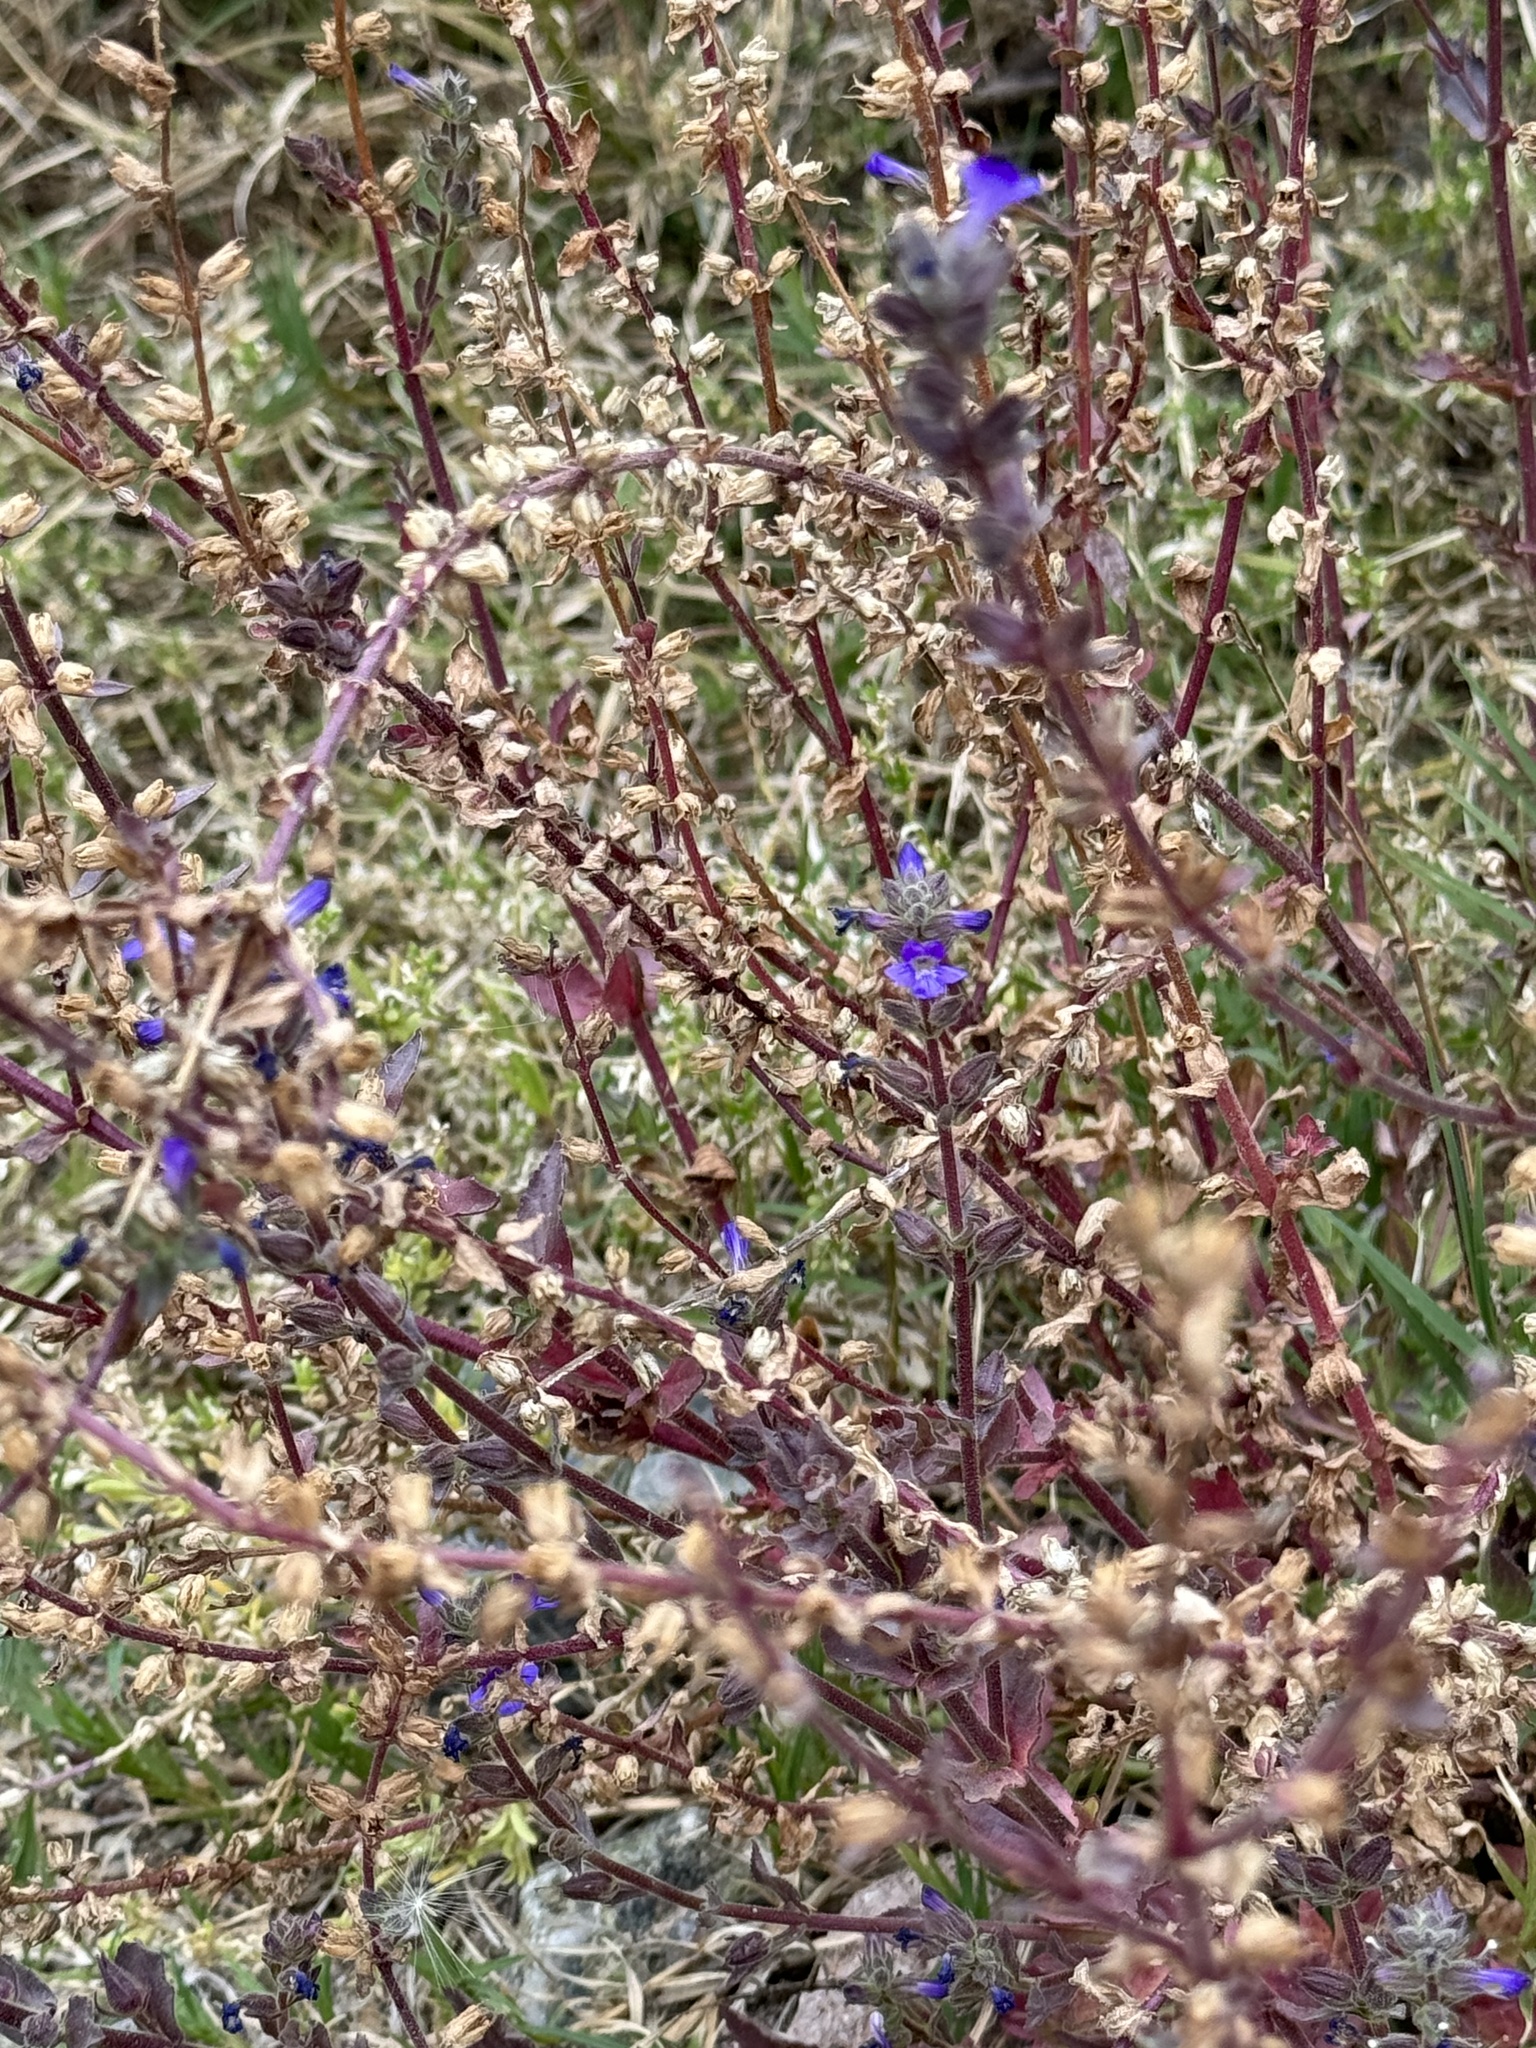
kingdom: Plantae
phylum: Tracheophyta
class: Magnoliopsida
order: Lamiales
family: Plantaginaceae
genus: Stemodia
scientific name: Stemodia durantifolia
